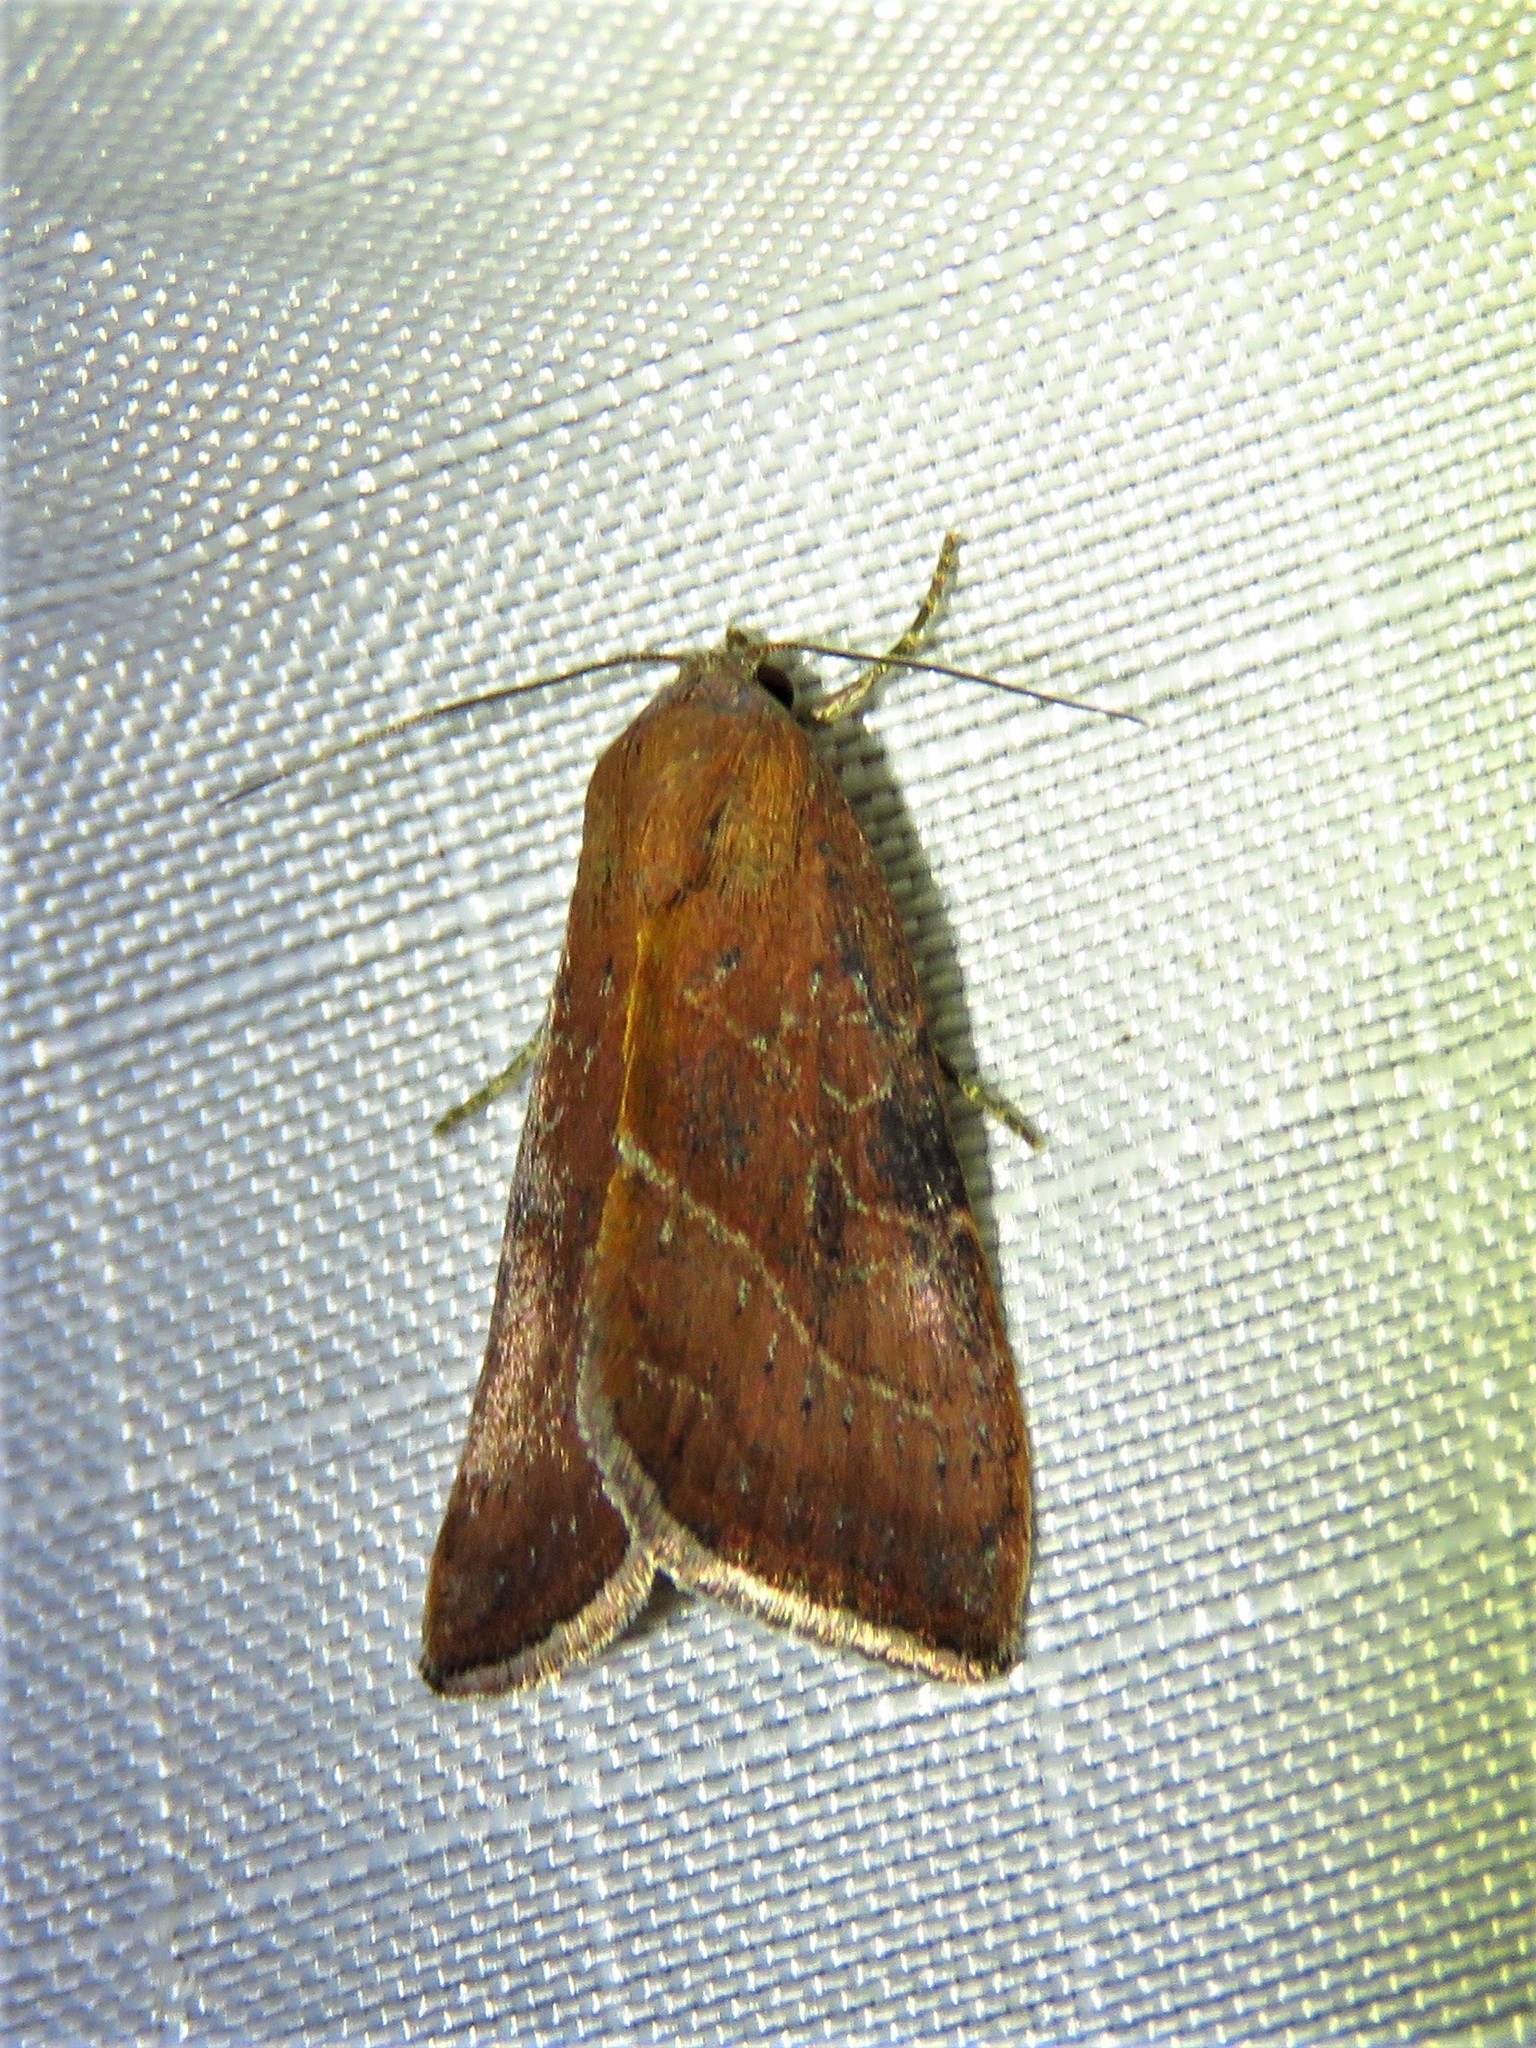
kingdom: Animalia
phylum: Arthropoda
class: Insecta
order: Lepidoptera
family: Noctuidae
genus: Galgula
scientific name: Galgula partita
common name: Wedgeling
